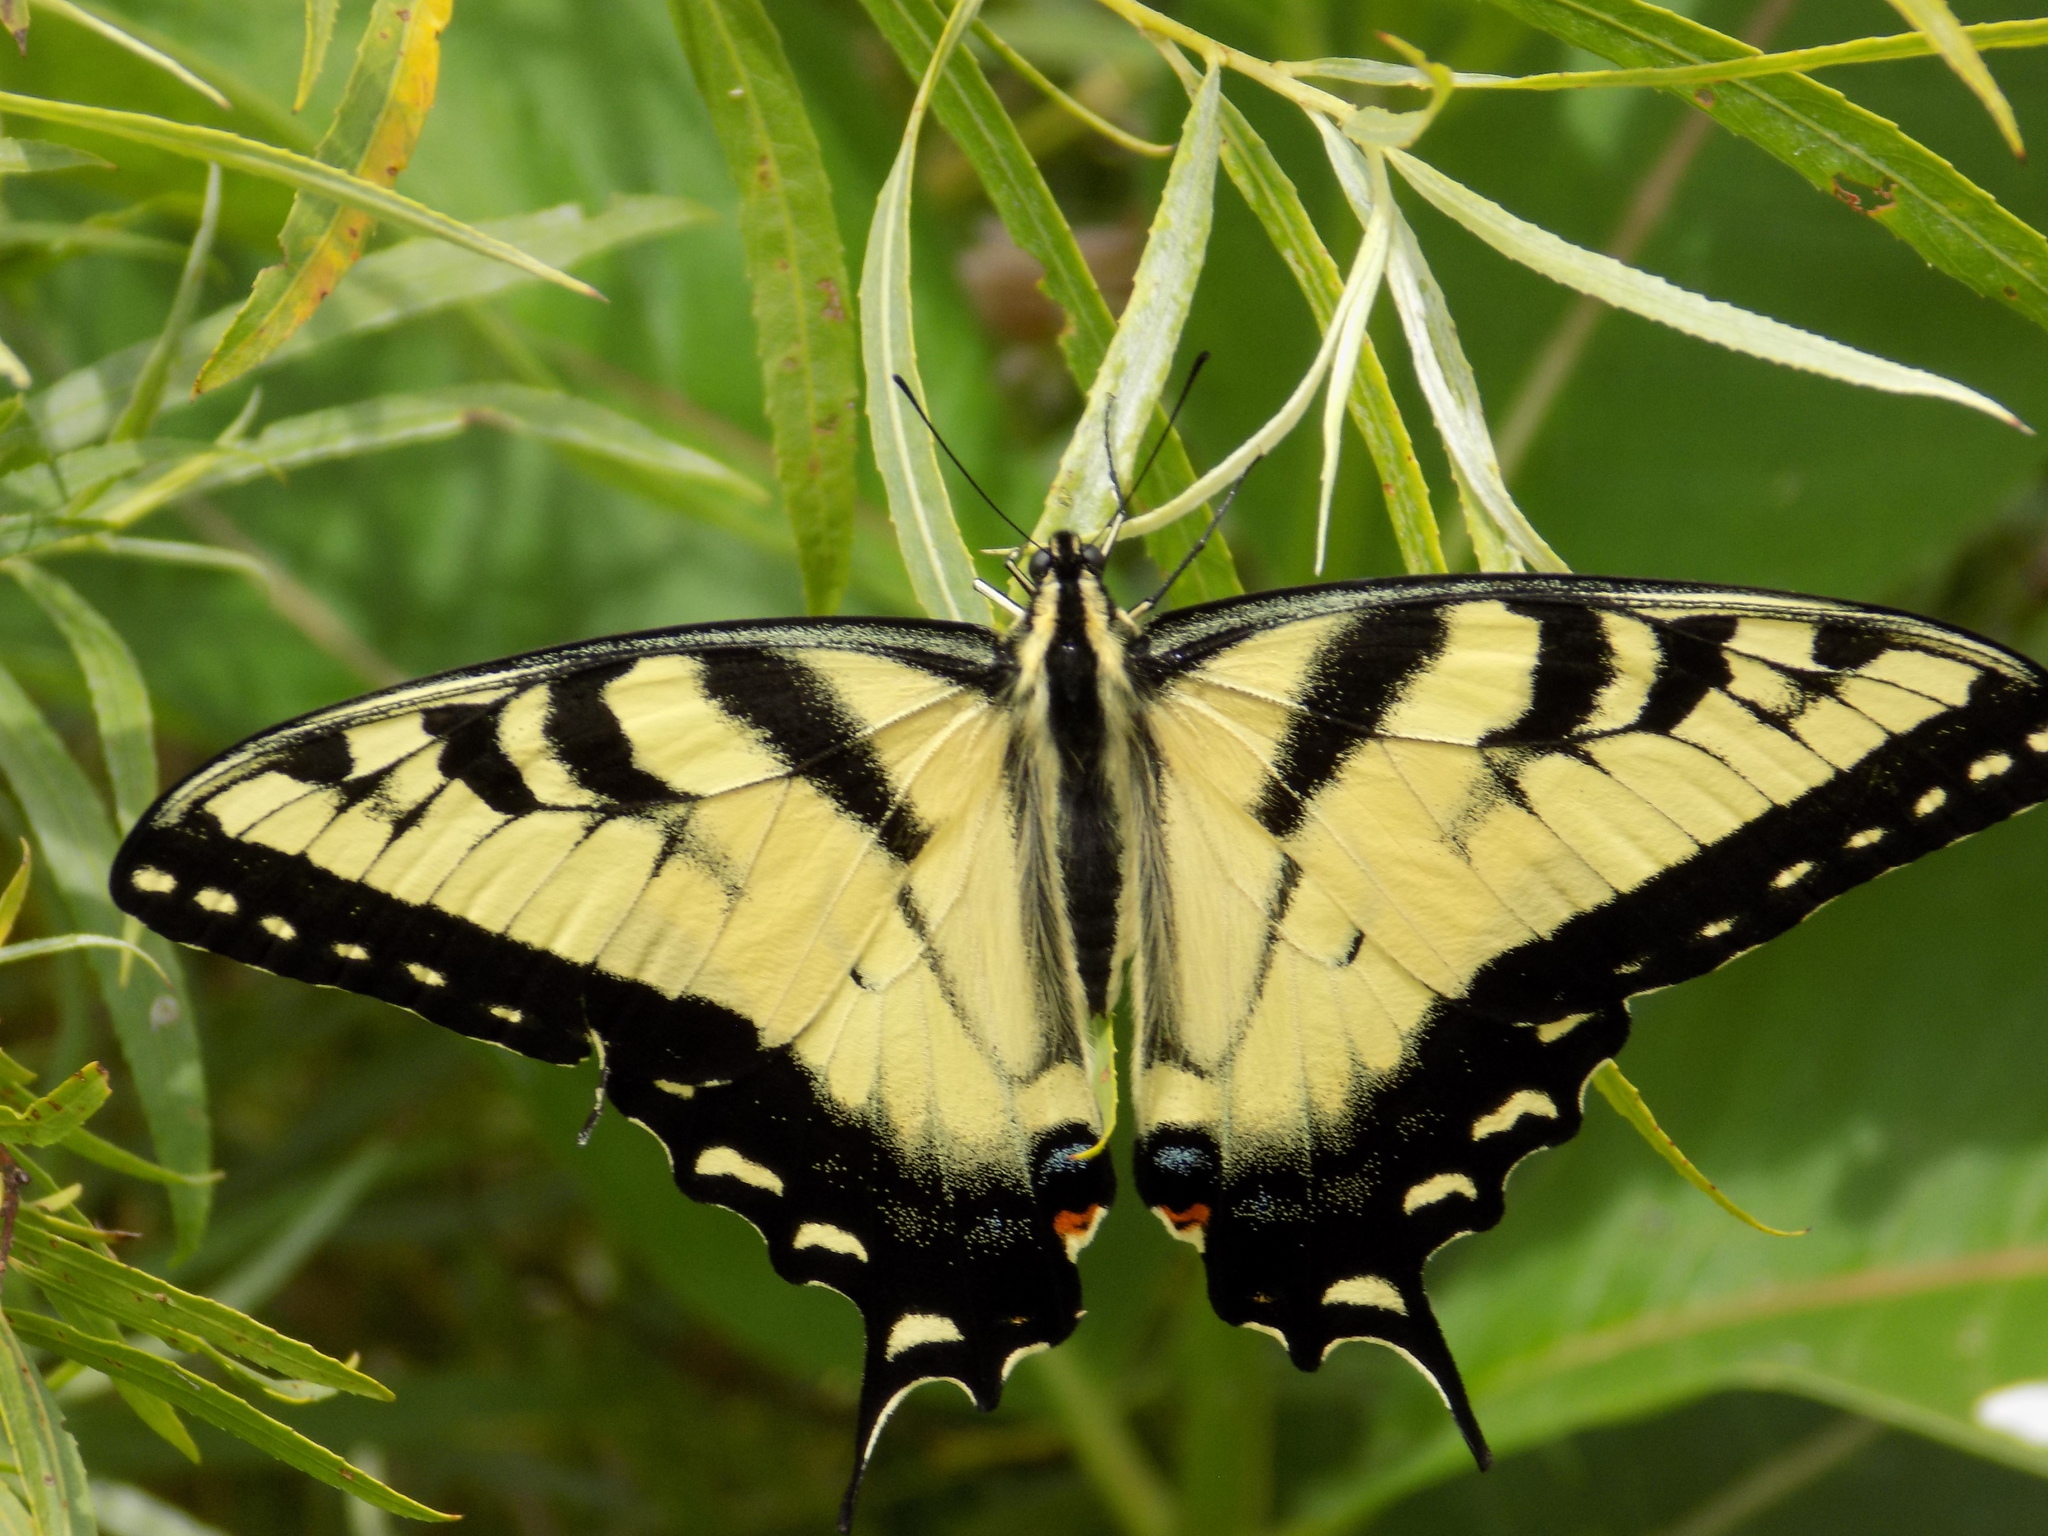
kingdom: Animalia
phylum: Arthropoda
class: Insecta
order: Lepidoptera
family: Papilionidae
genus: Papilio
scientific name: Papilio glaucus
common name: Tiger swallowtail
